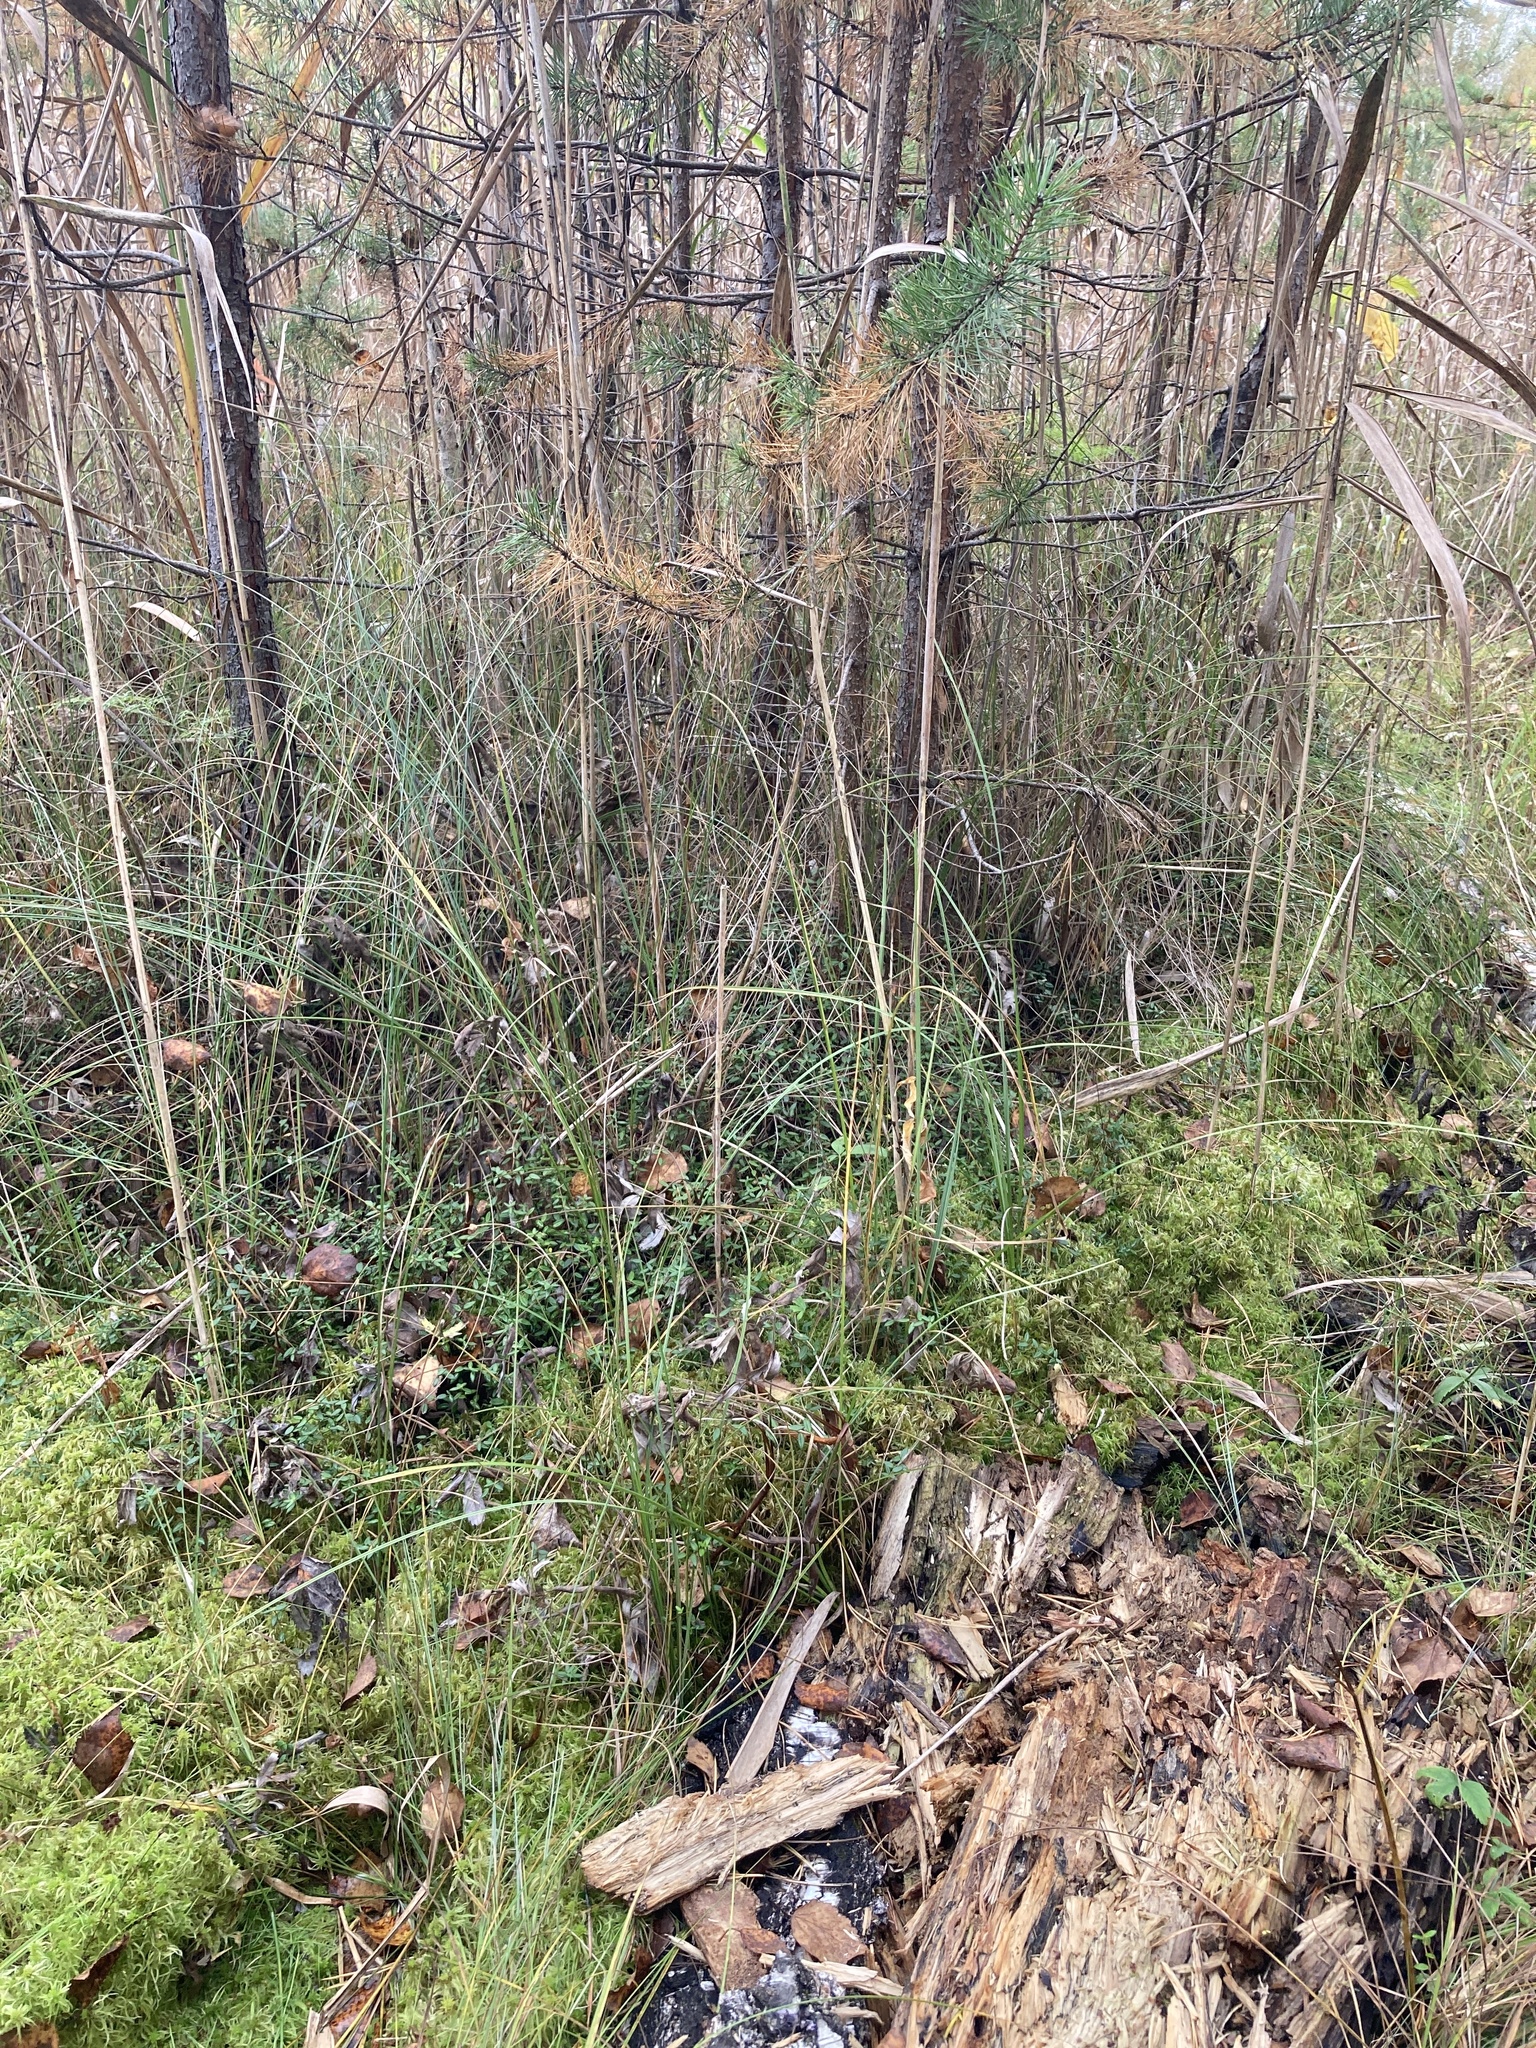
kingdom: Plantae
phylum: Tracheophyta
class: Magnoliopsida
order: Ericales
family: Ericaceae
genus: Vaccinium
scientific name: Vaccinium oxycoccos
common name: Cranberry
